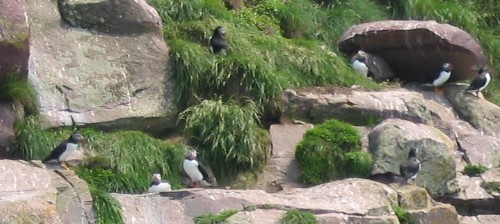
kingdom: Animalia
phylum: Chordata
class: Aves
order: Charadriiformes
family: Alcidae
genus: Fratercula
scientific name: Fratercula arctica
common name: Atlantic puffin
